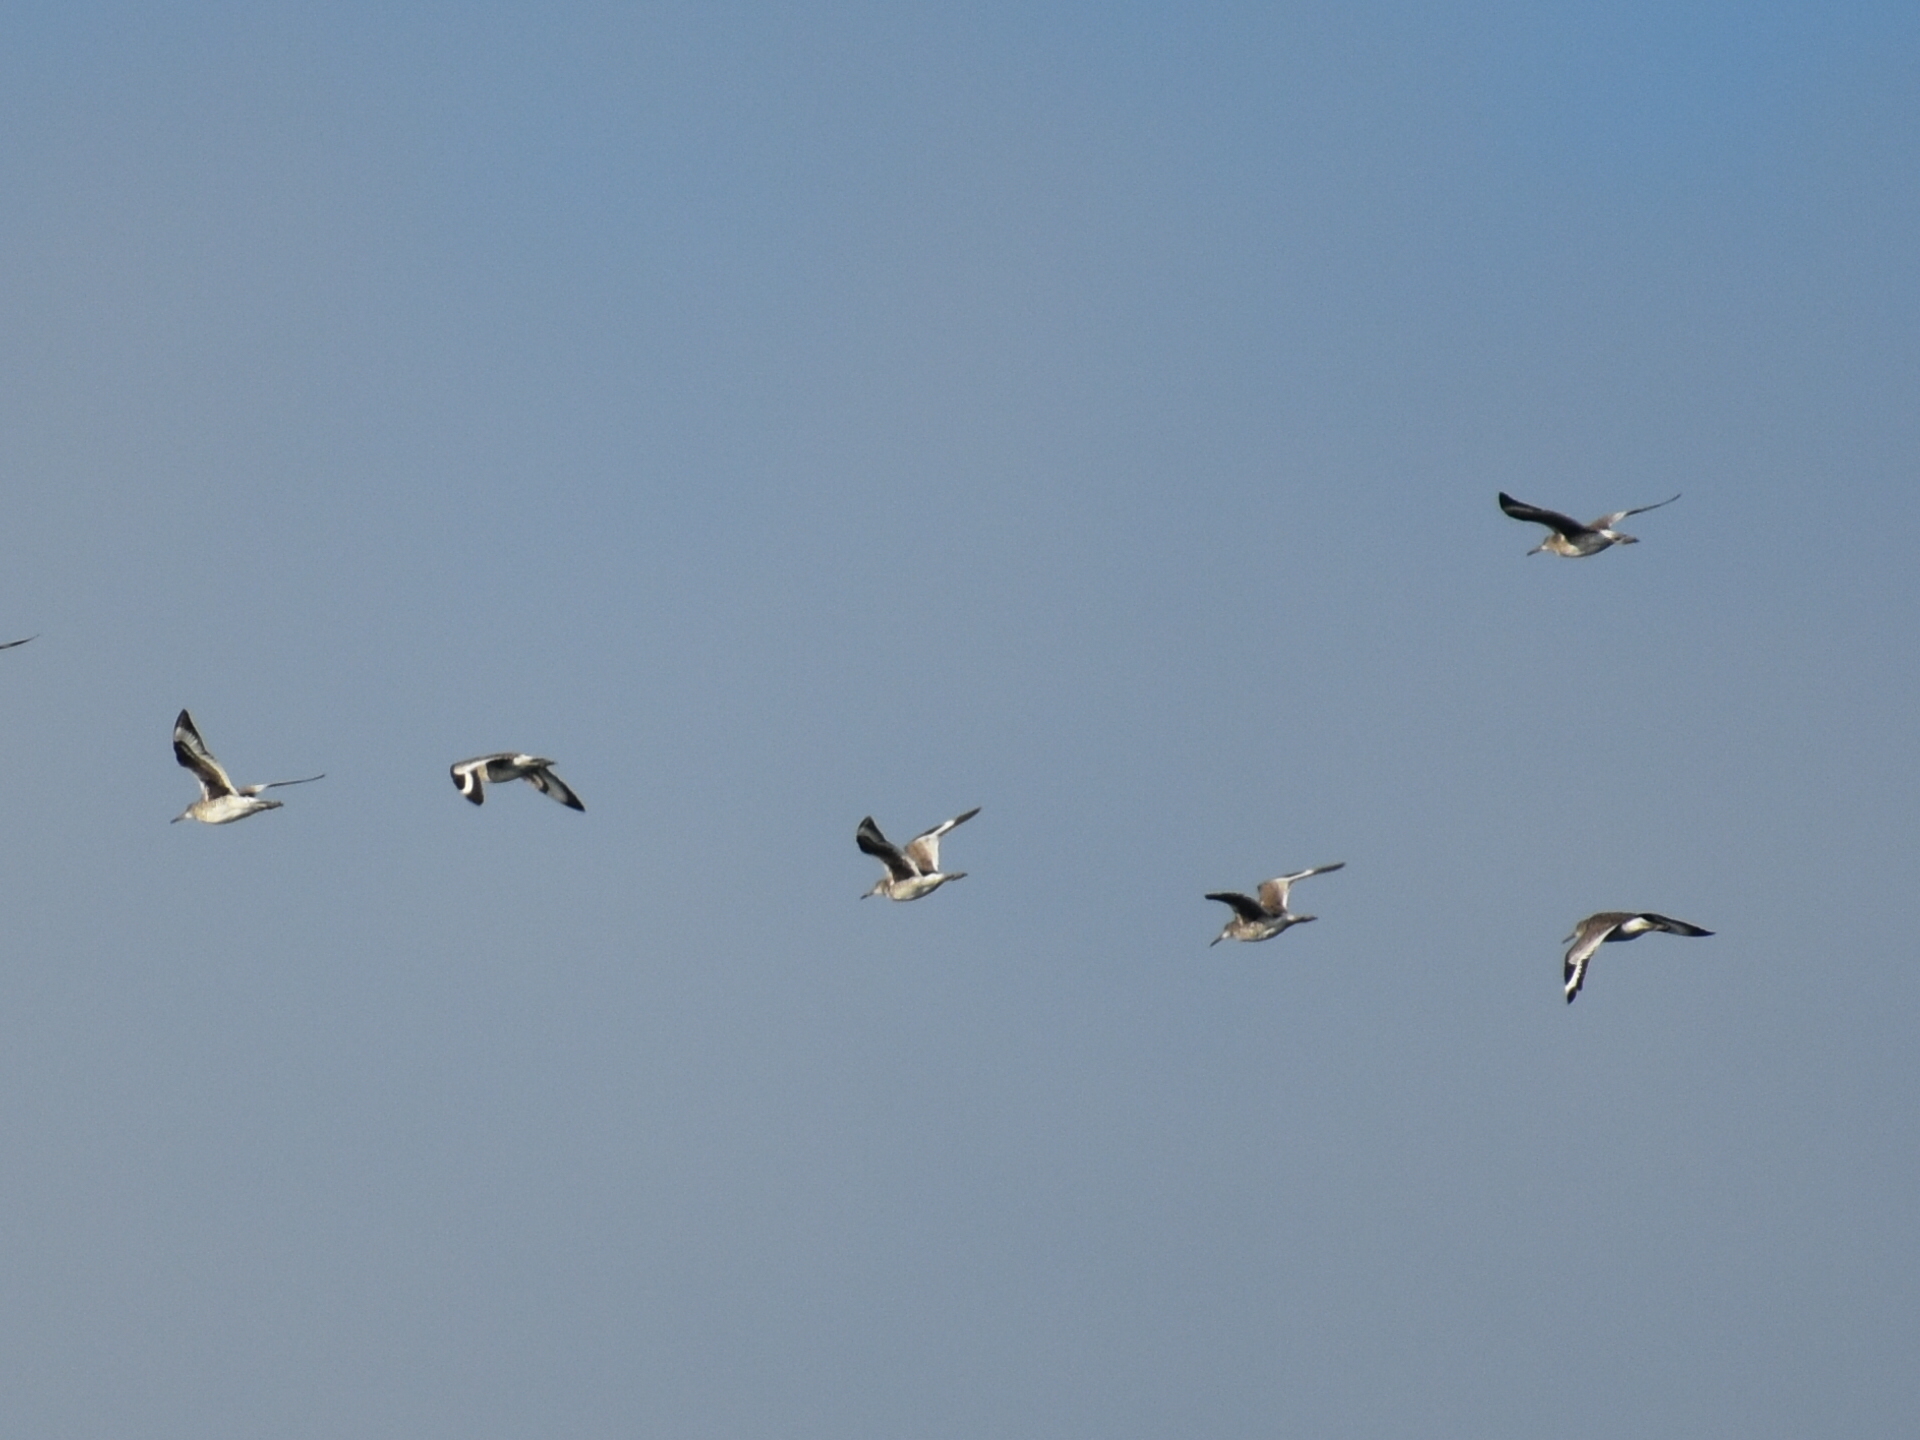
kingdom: Animalia
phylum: Chordata
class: Aves
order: Charadriiformes
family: Scolopacidae
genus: Tringa
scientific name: Tringa semipalmata
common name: Willet
